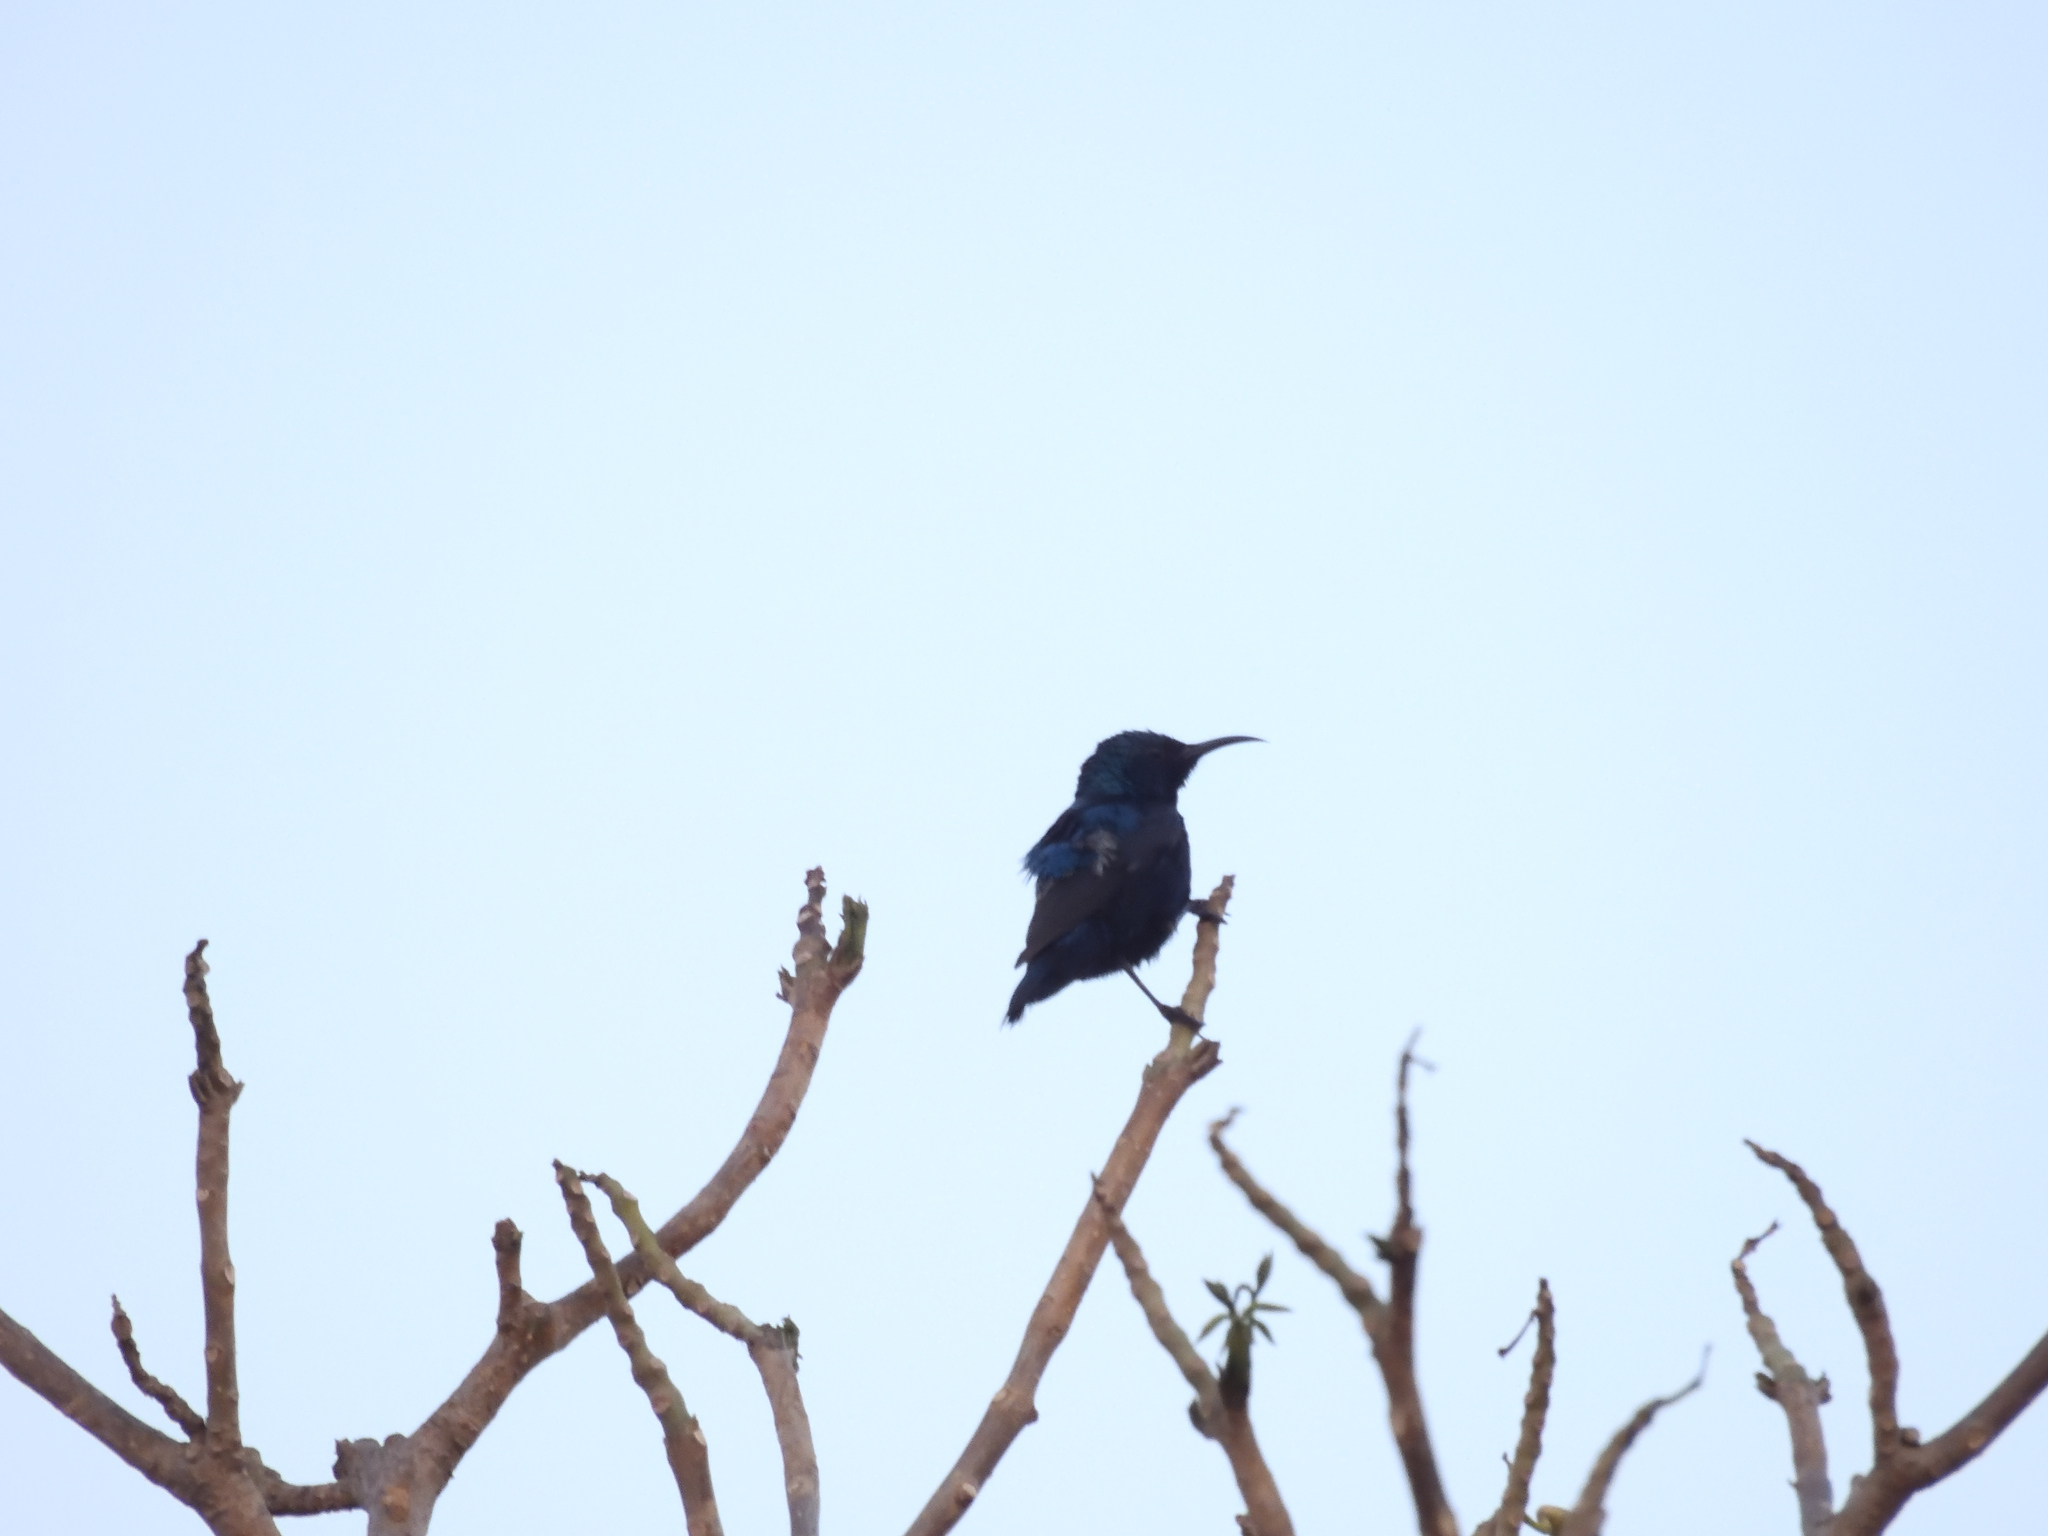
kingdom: Animalia
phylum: Chordata
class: Aves
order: Passeriformes
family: Nectariniidae
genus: Cinnyris
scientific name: Cinnyris asiaticus
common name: Purple sunbird
